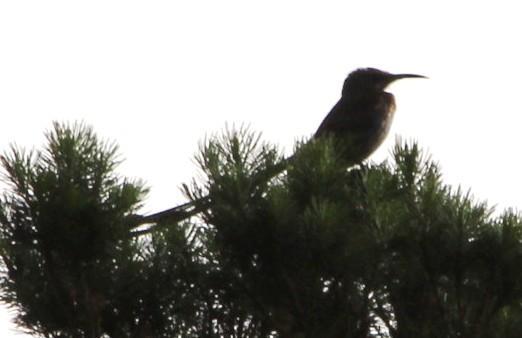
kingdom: Animalia
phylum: Chordata
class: Aves
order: Passeriformes
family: Promeropidae
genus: Promerops
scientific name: Promerops cafer
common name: Cape sugarbird
